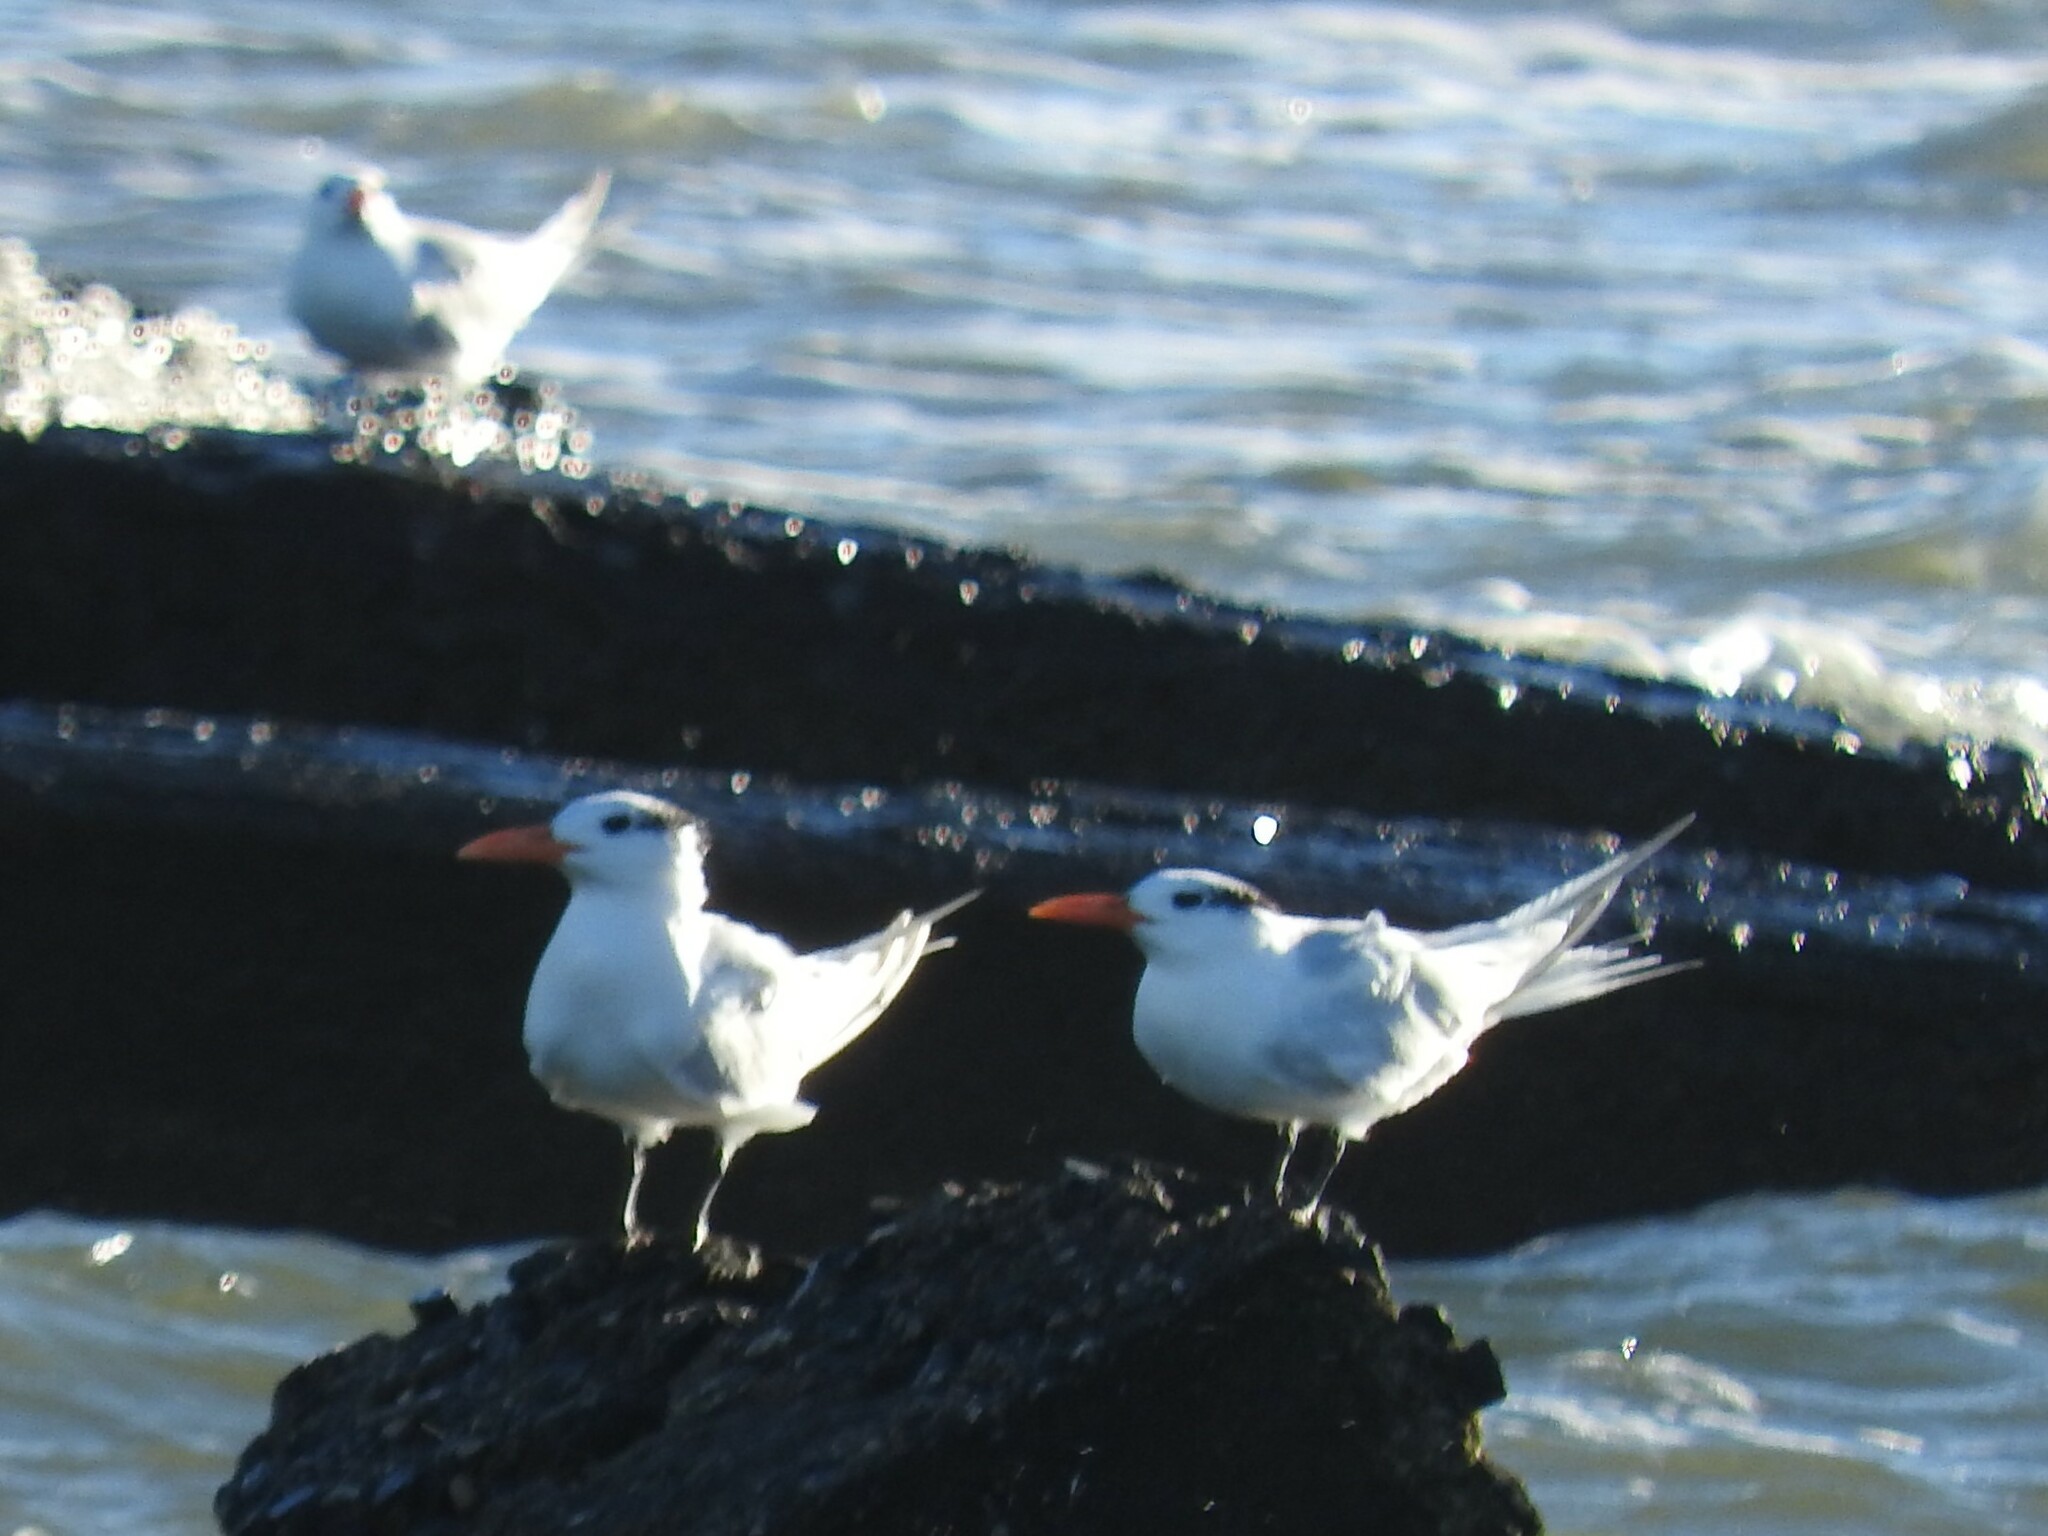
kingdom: Animalia
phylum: Chordata
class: Aves
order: Charadriiformes
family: Laridae
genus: Thalasseus
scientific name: Thalasseus maximus
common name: Royal tern
